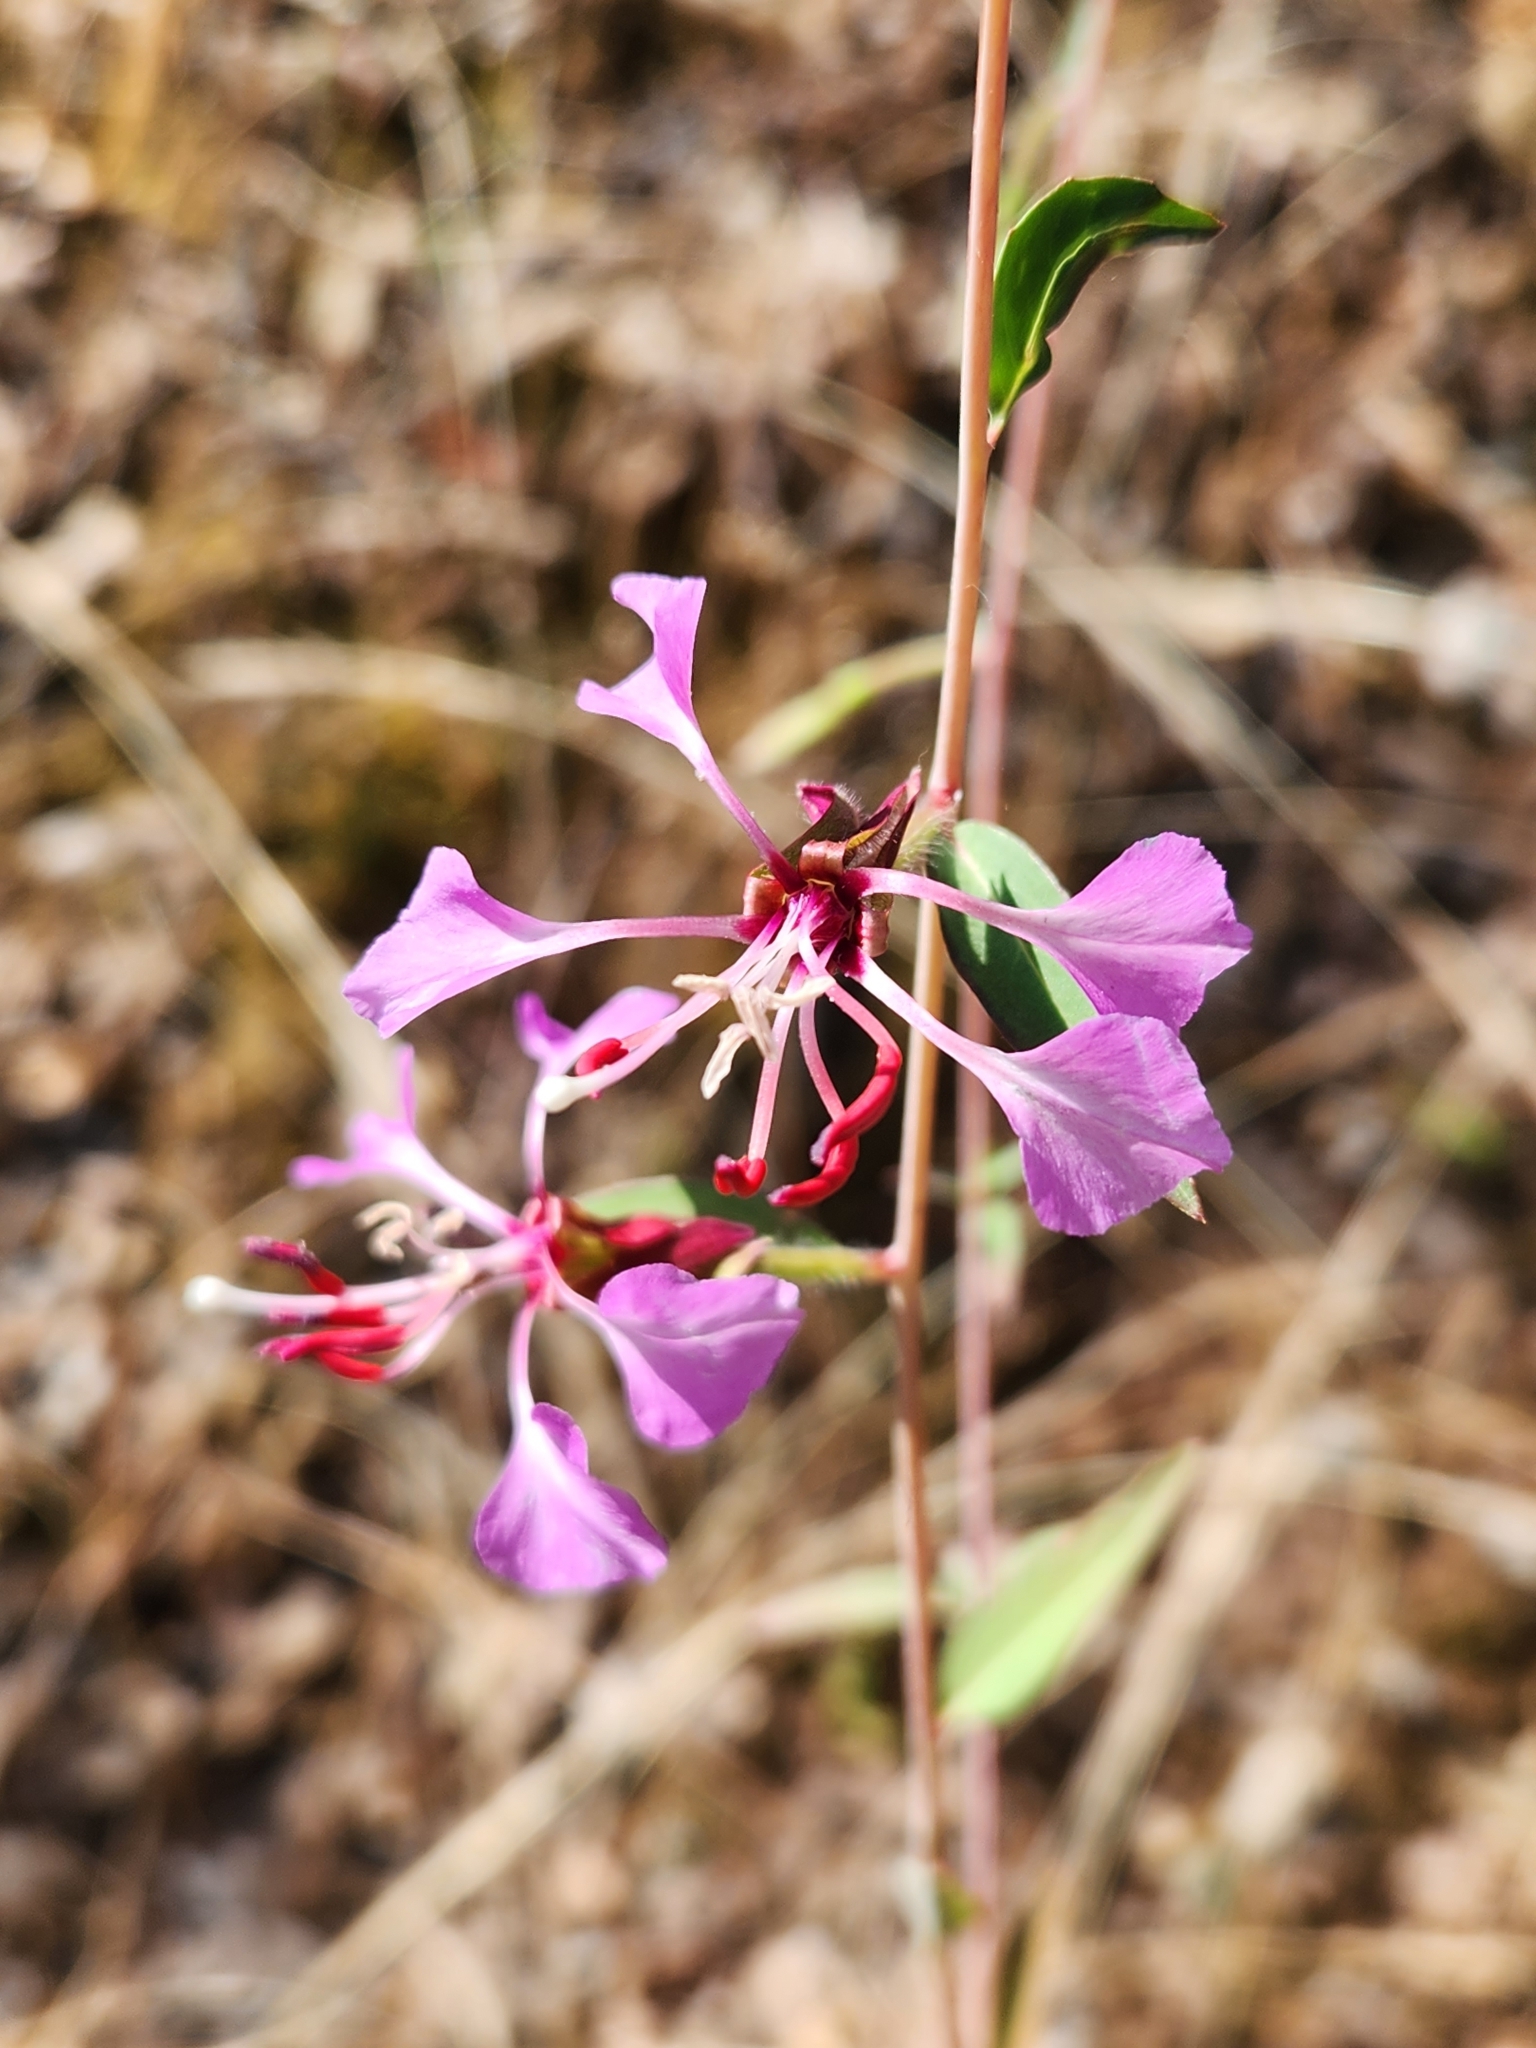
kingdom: Plantae
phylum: Tracheophyta
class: Magnoliopsida
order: Myrtales
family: Onagraceae
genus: Clarkia
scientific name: Clarkia unguiculata
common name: Clarkia
